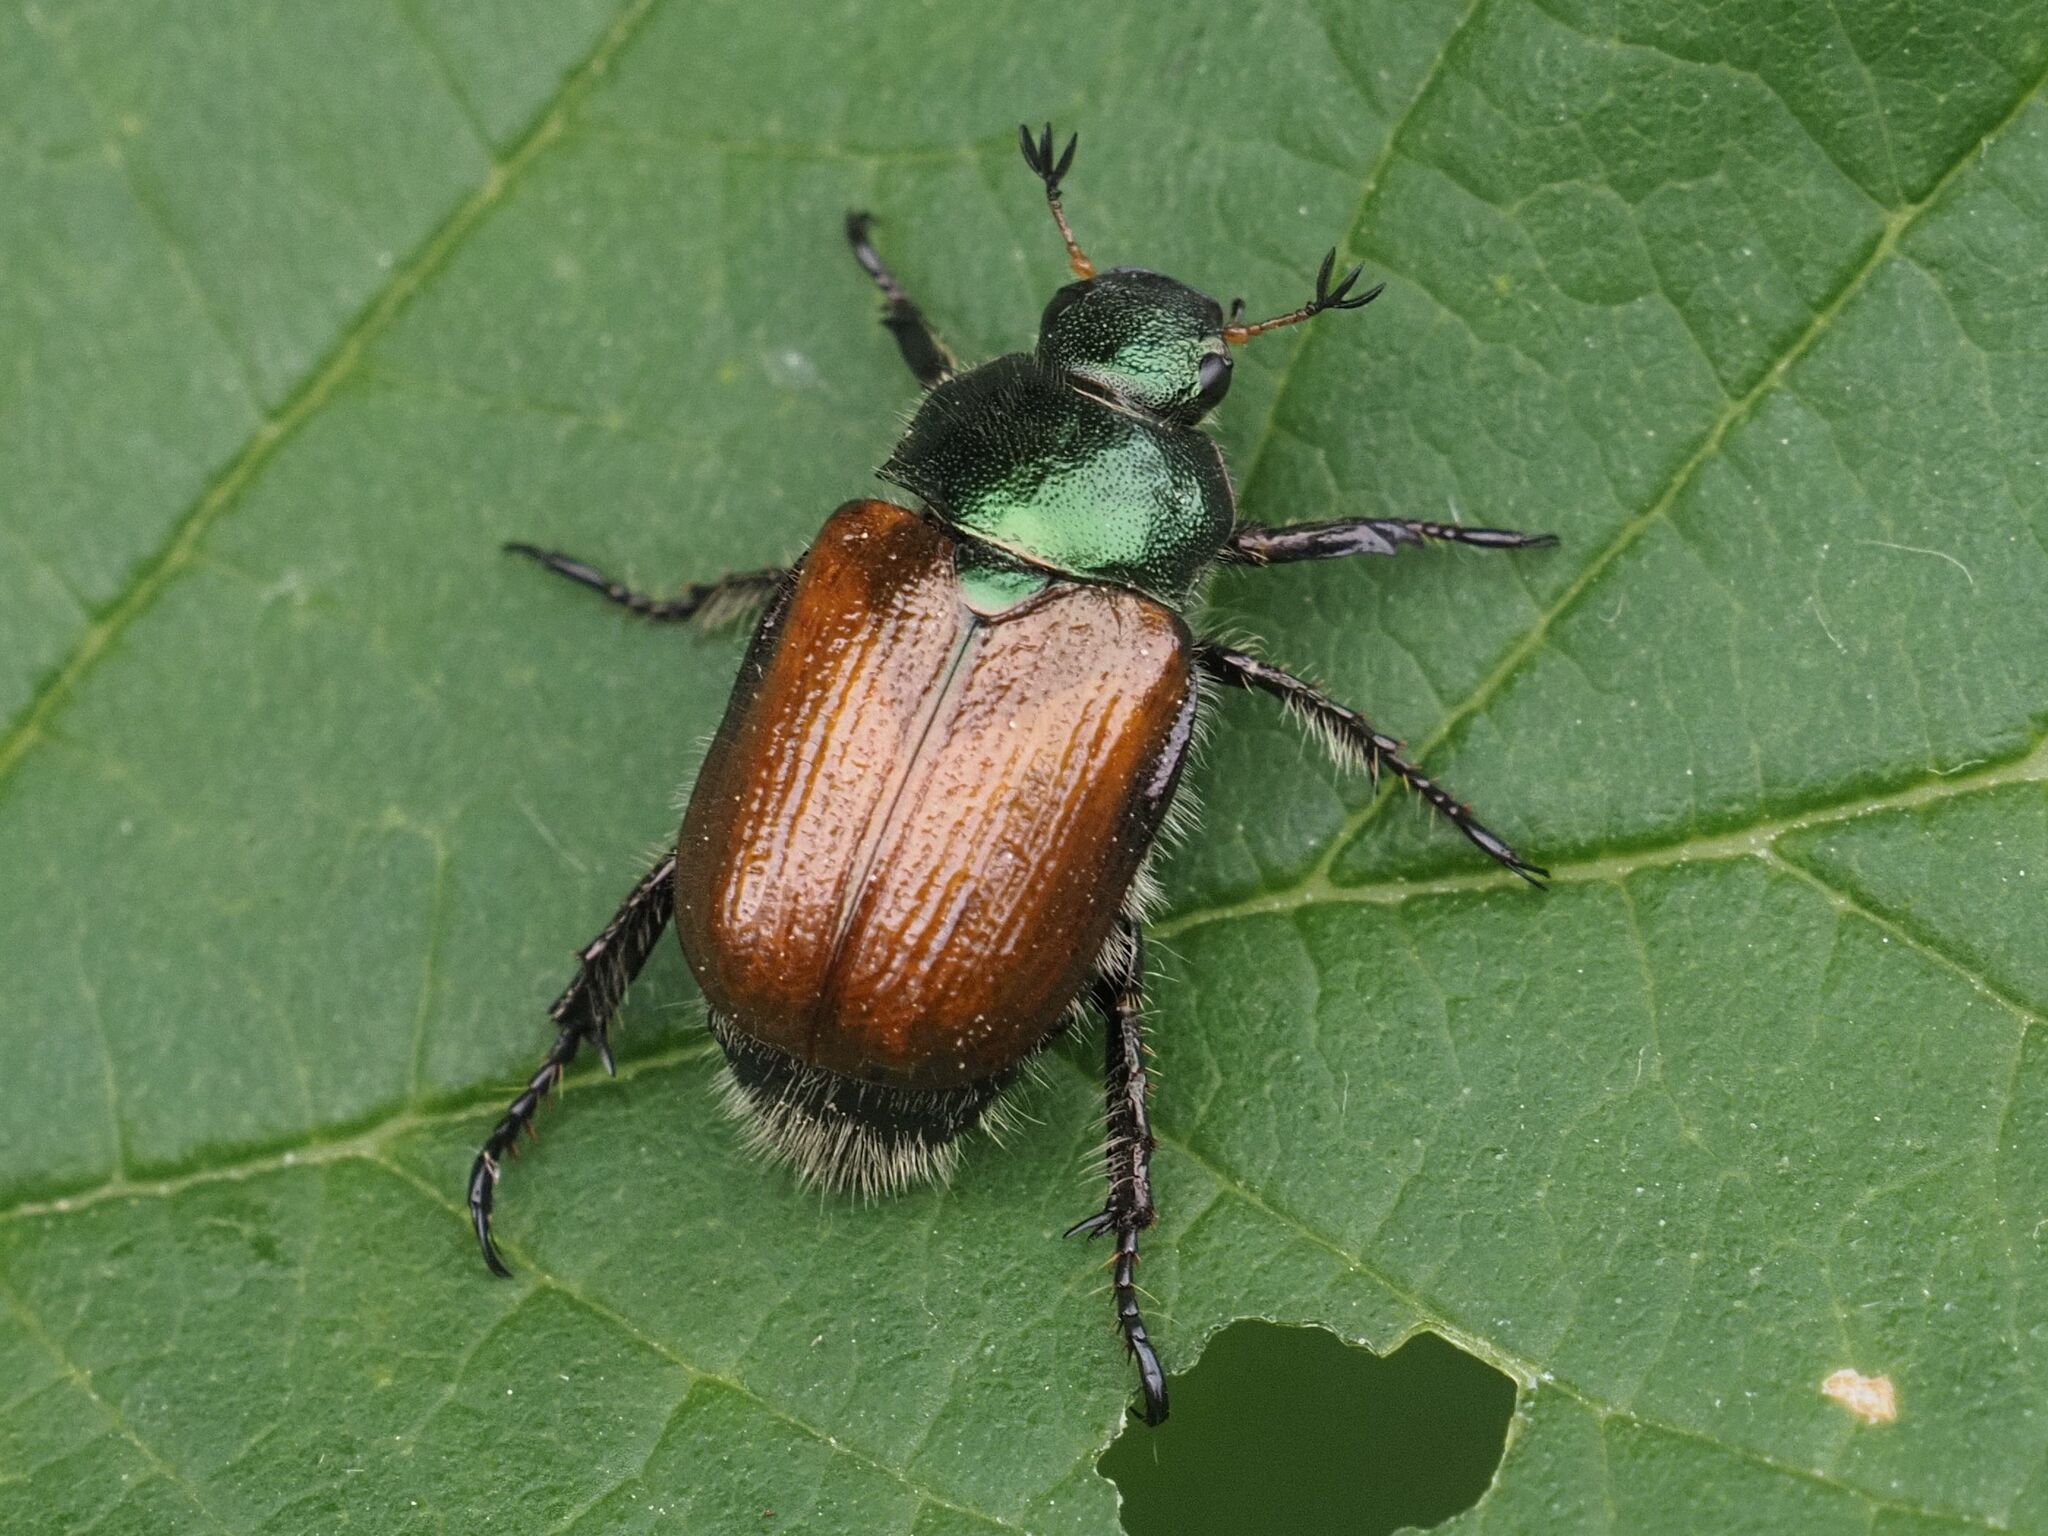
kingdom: Animalia
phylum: Arthropoda
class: Insecta
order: Coleoptera
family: Scarabaeidae
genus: Phyllopertha
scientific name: Phyllopertha horticola
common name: Garden chafer
